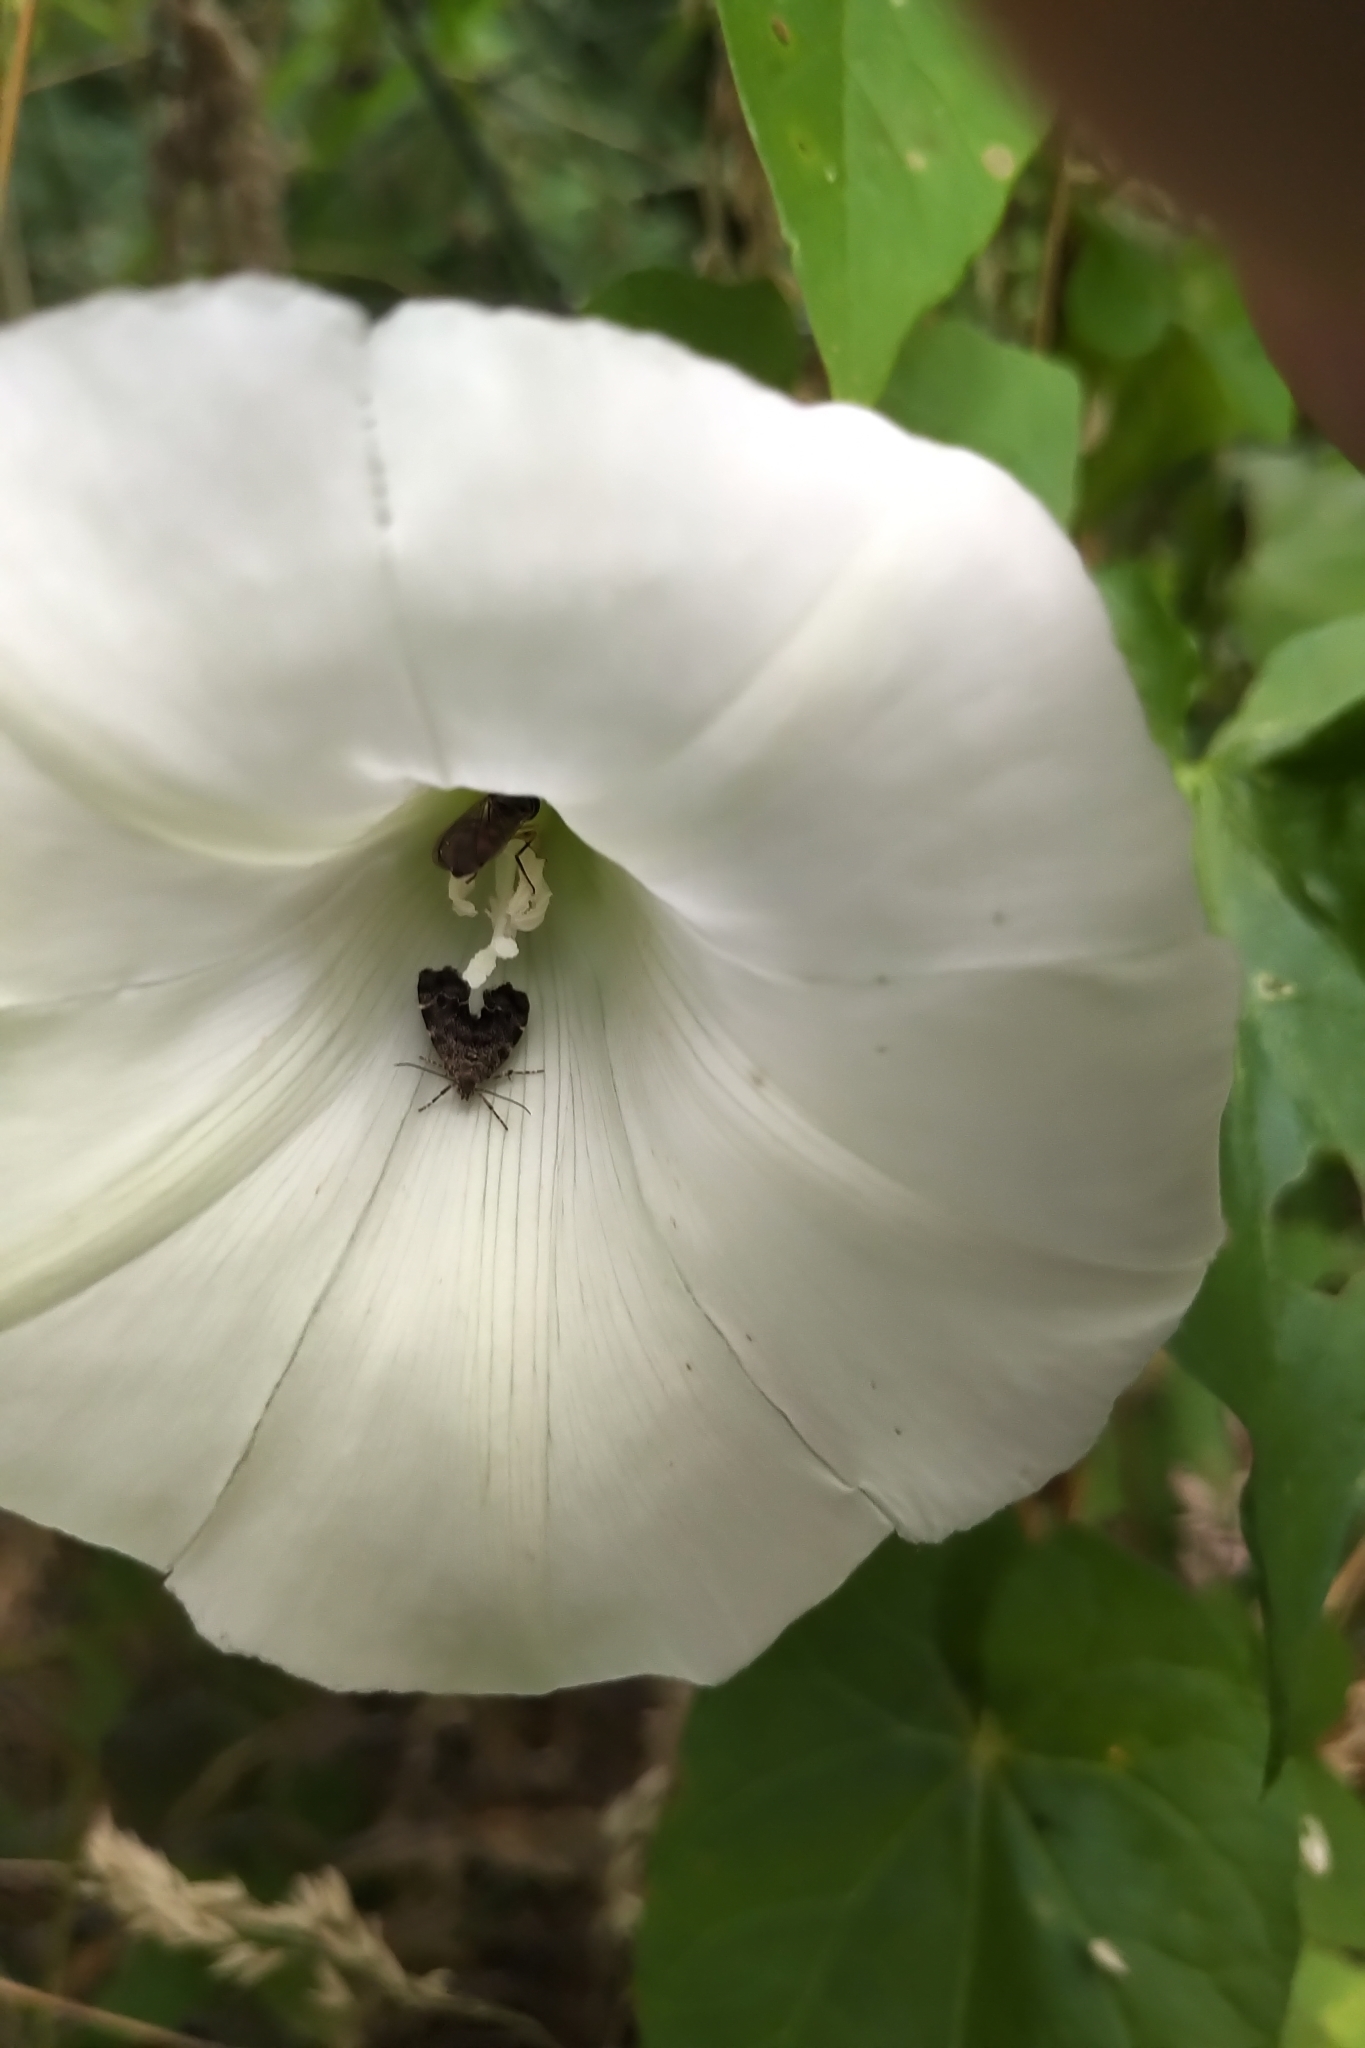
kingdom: Animalia
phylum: Arthropoda
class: Insecta
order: Lepidoptera
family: Choreutidae
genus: Anthophila
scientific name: Anthophila fabriciana
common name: Nettle-tap
